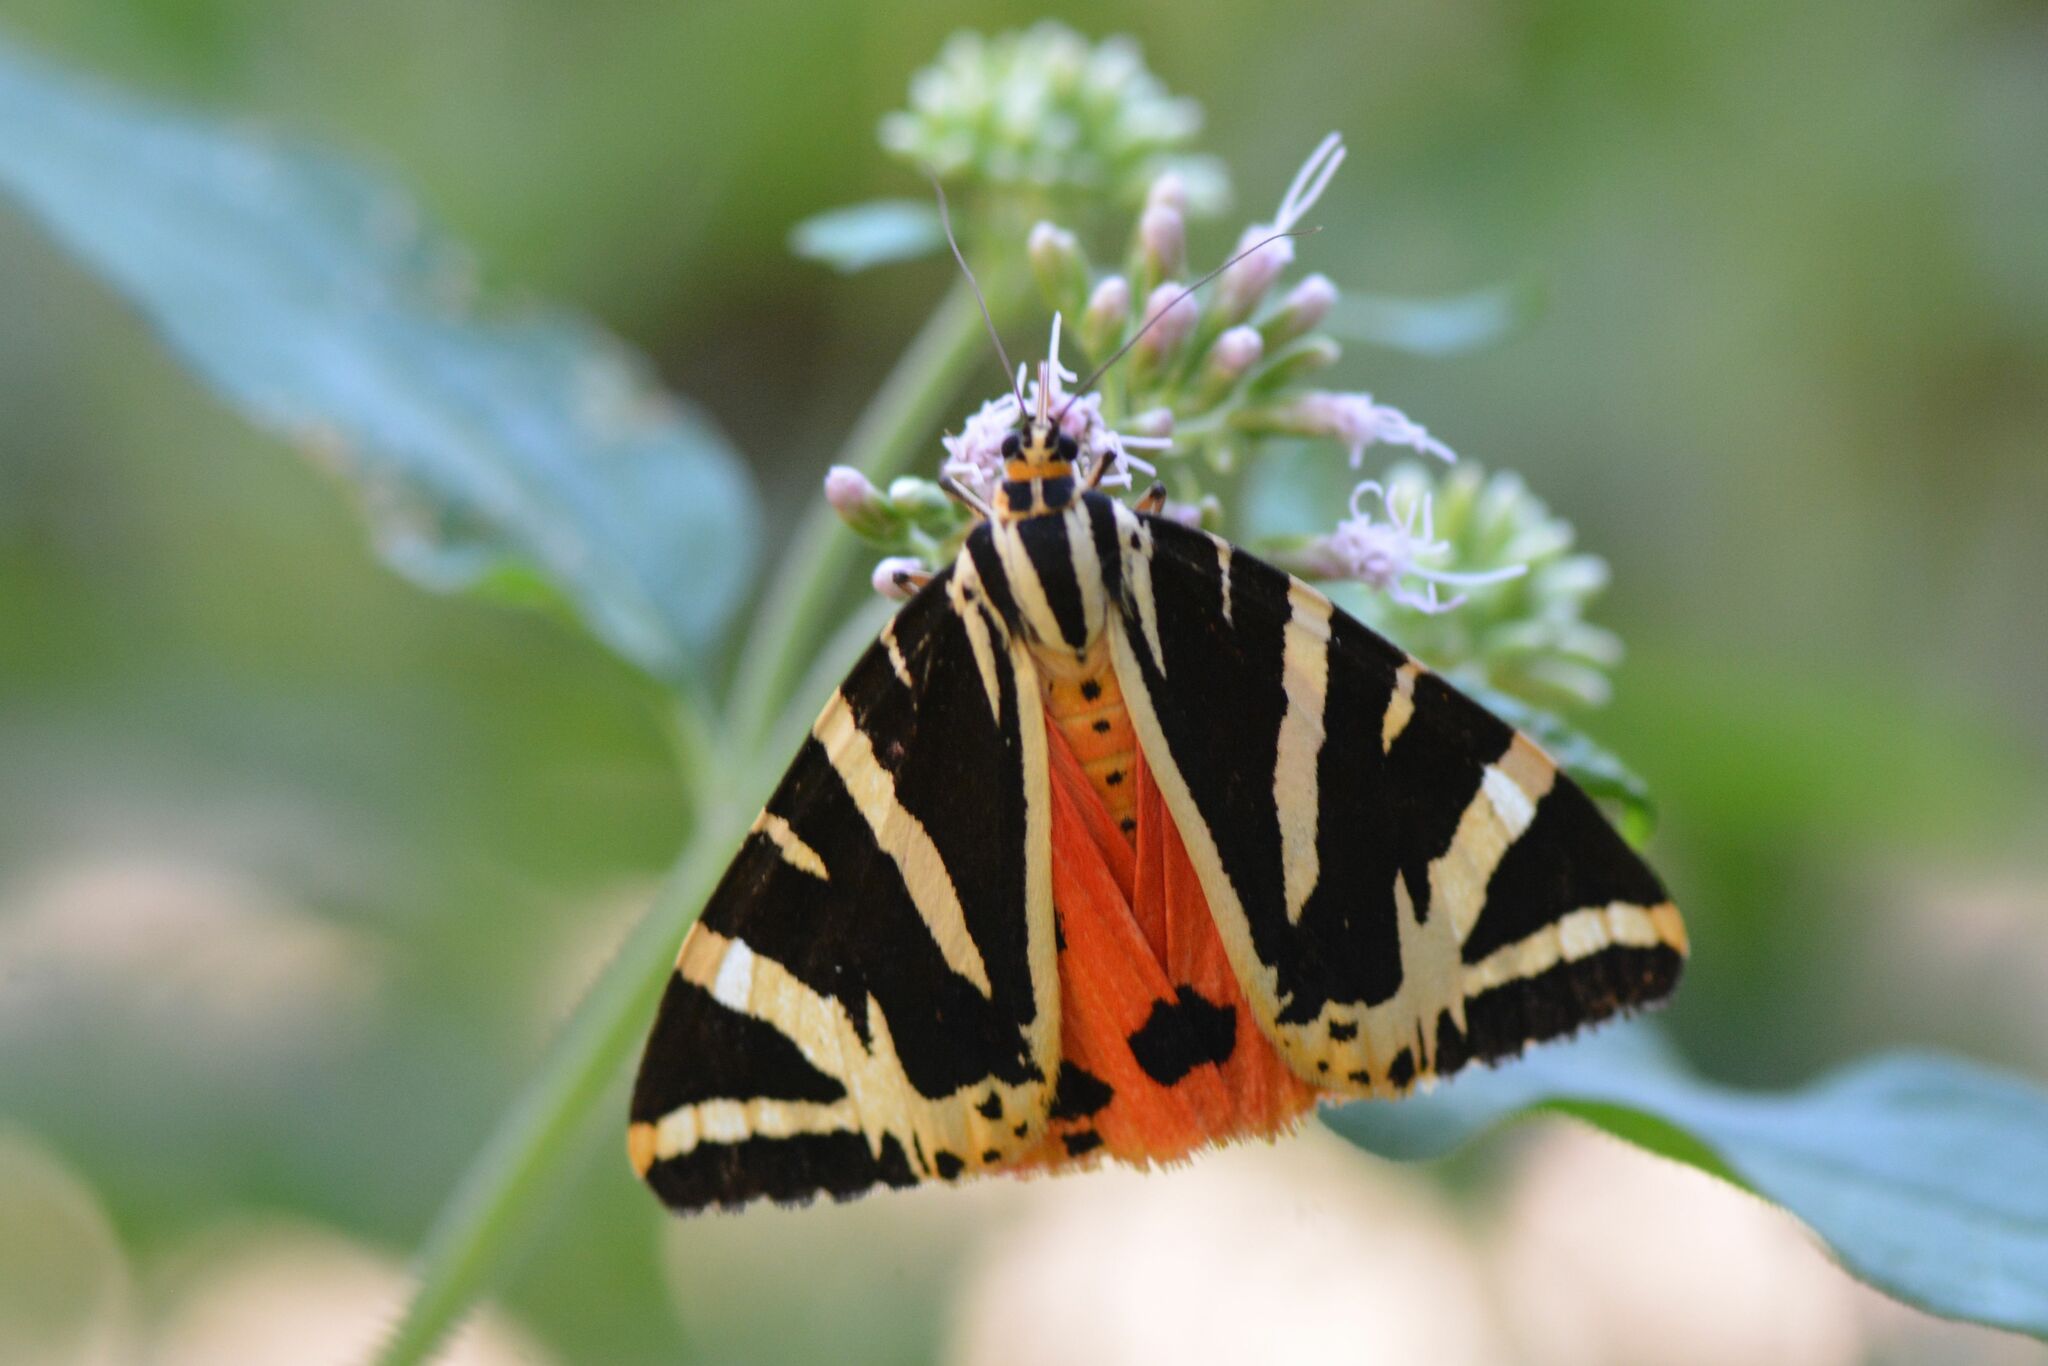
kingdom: Animalia
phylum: Arthropoda
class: Insecta
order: Lepidoptera
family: Erebidae
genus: Euplagia
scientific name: Euplagia quadripunctaria
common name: Jersey tiger
